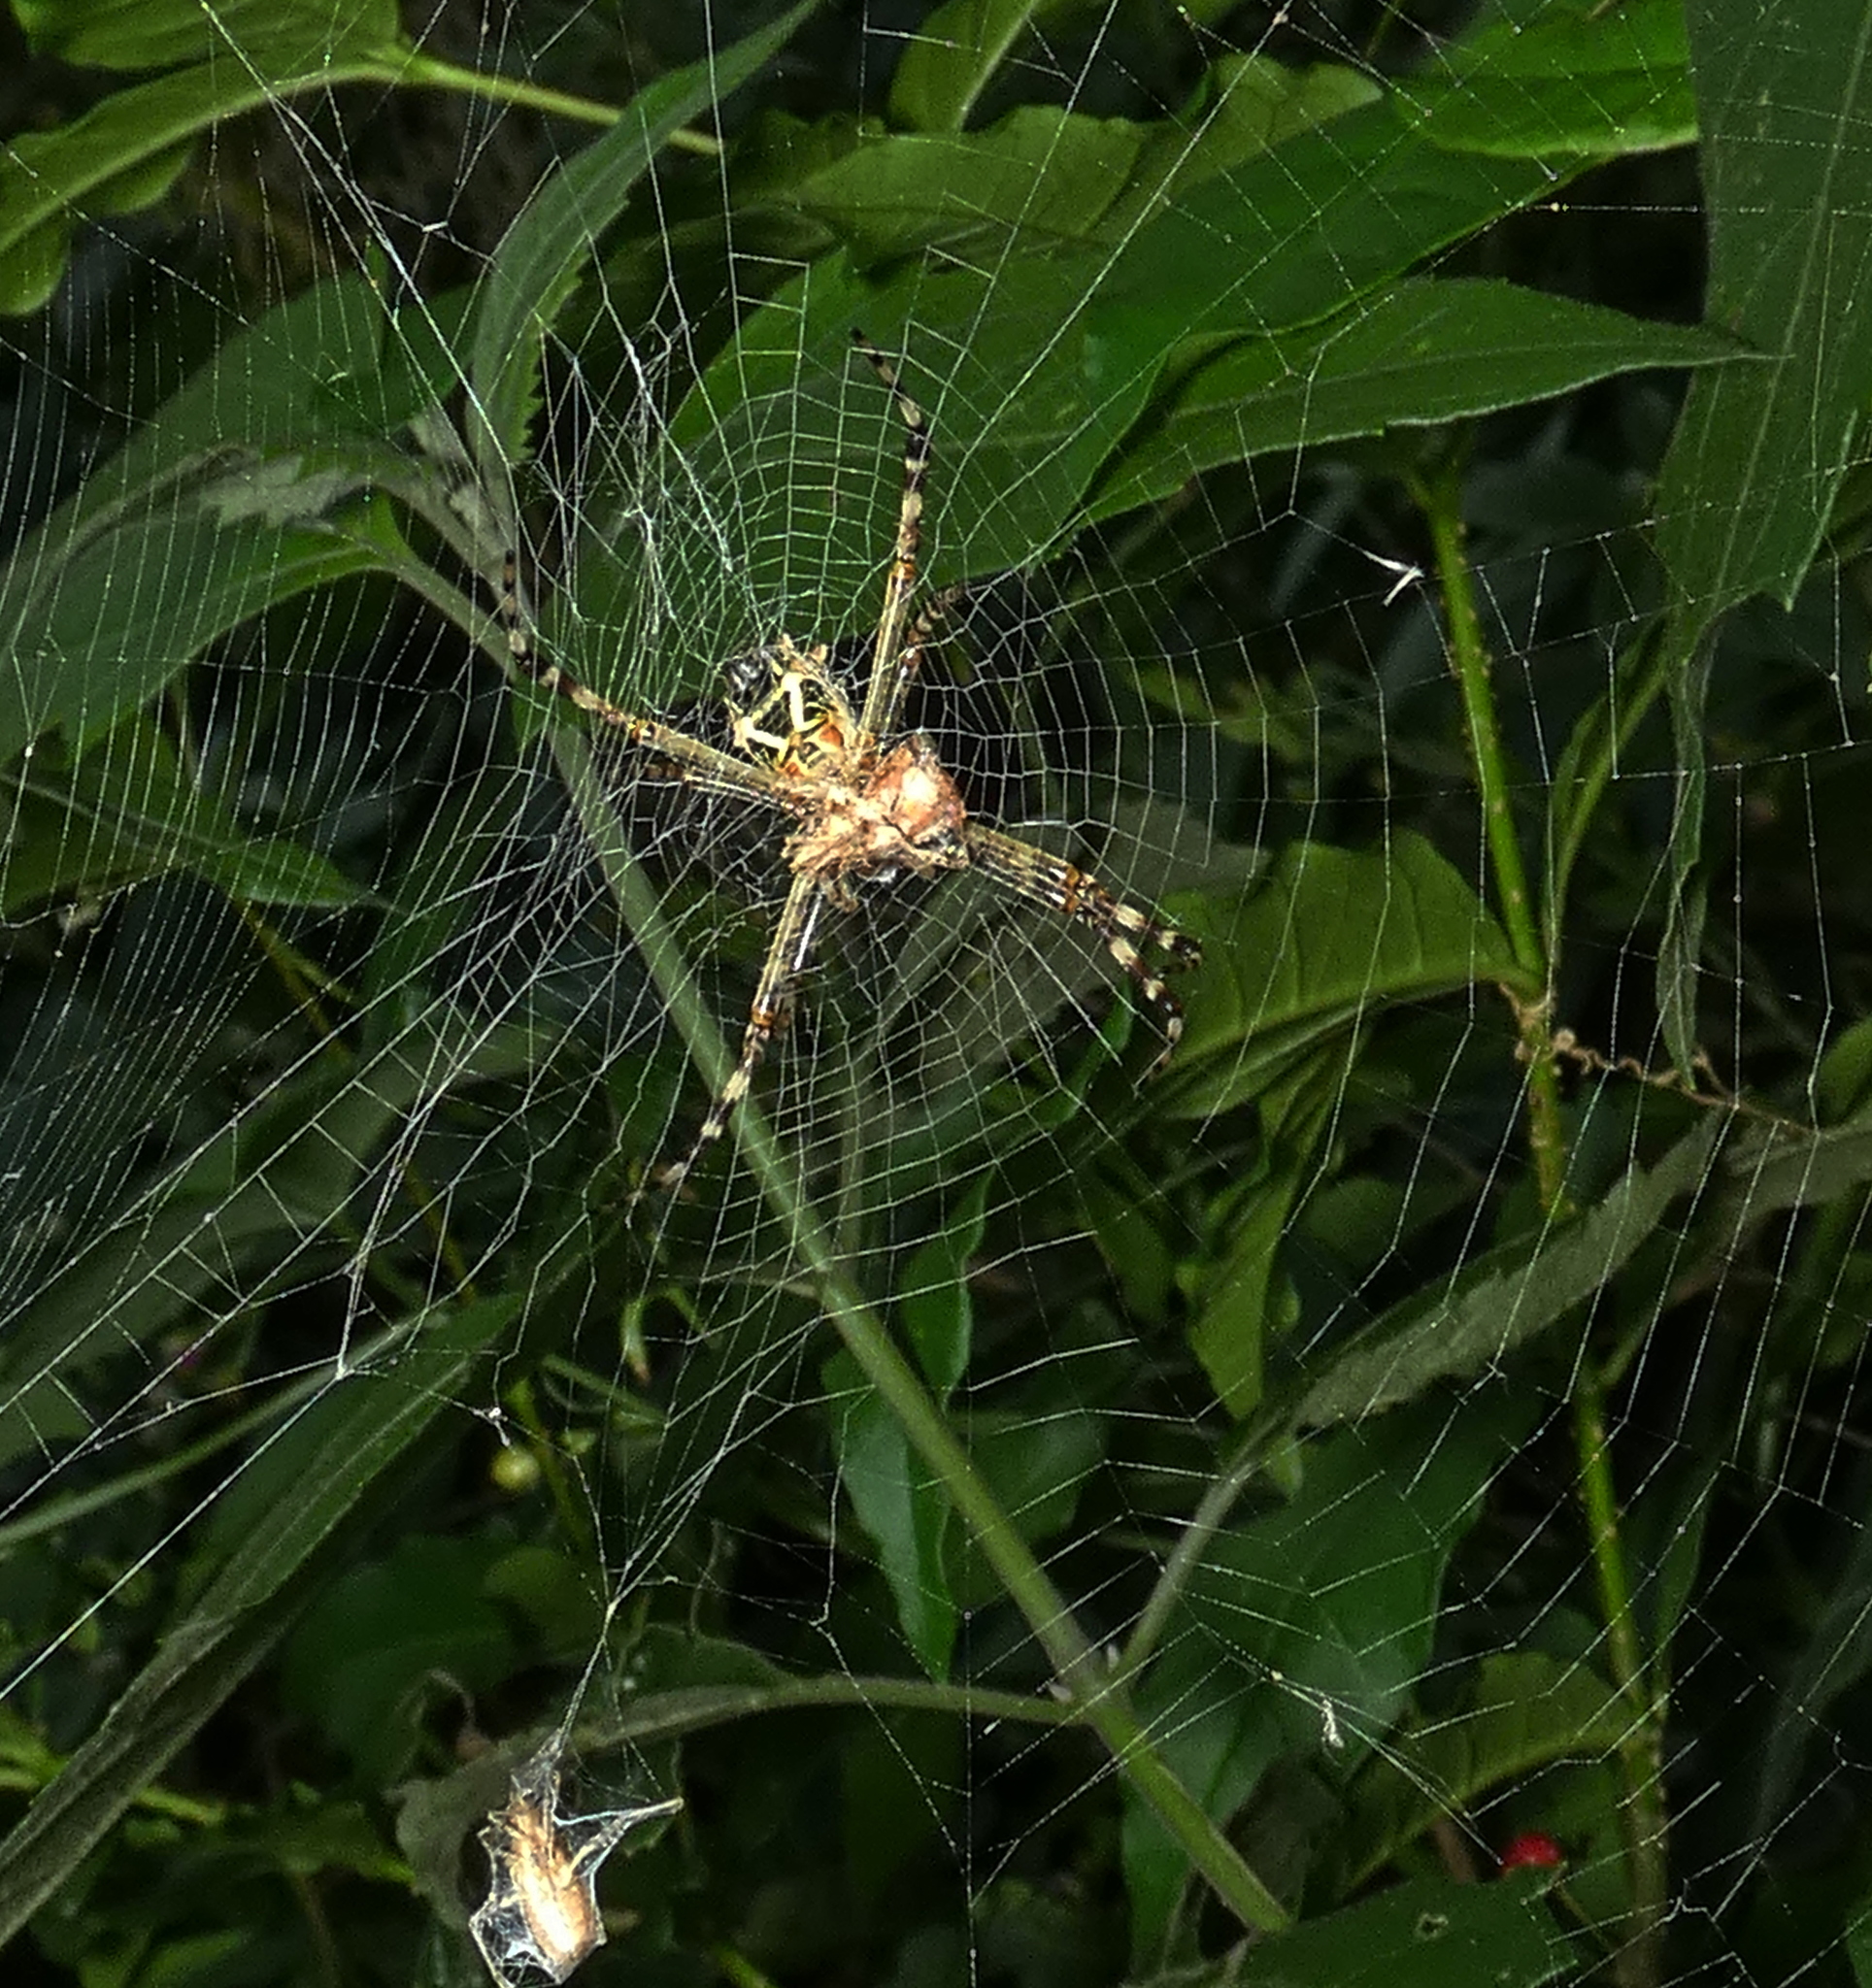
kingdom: Animalia
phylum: Arthropoda
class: Arachnida
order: Araneae
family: Araneidae
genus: Argiope
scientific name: Argiope argentata
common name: Orb weavers
